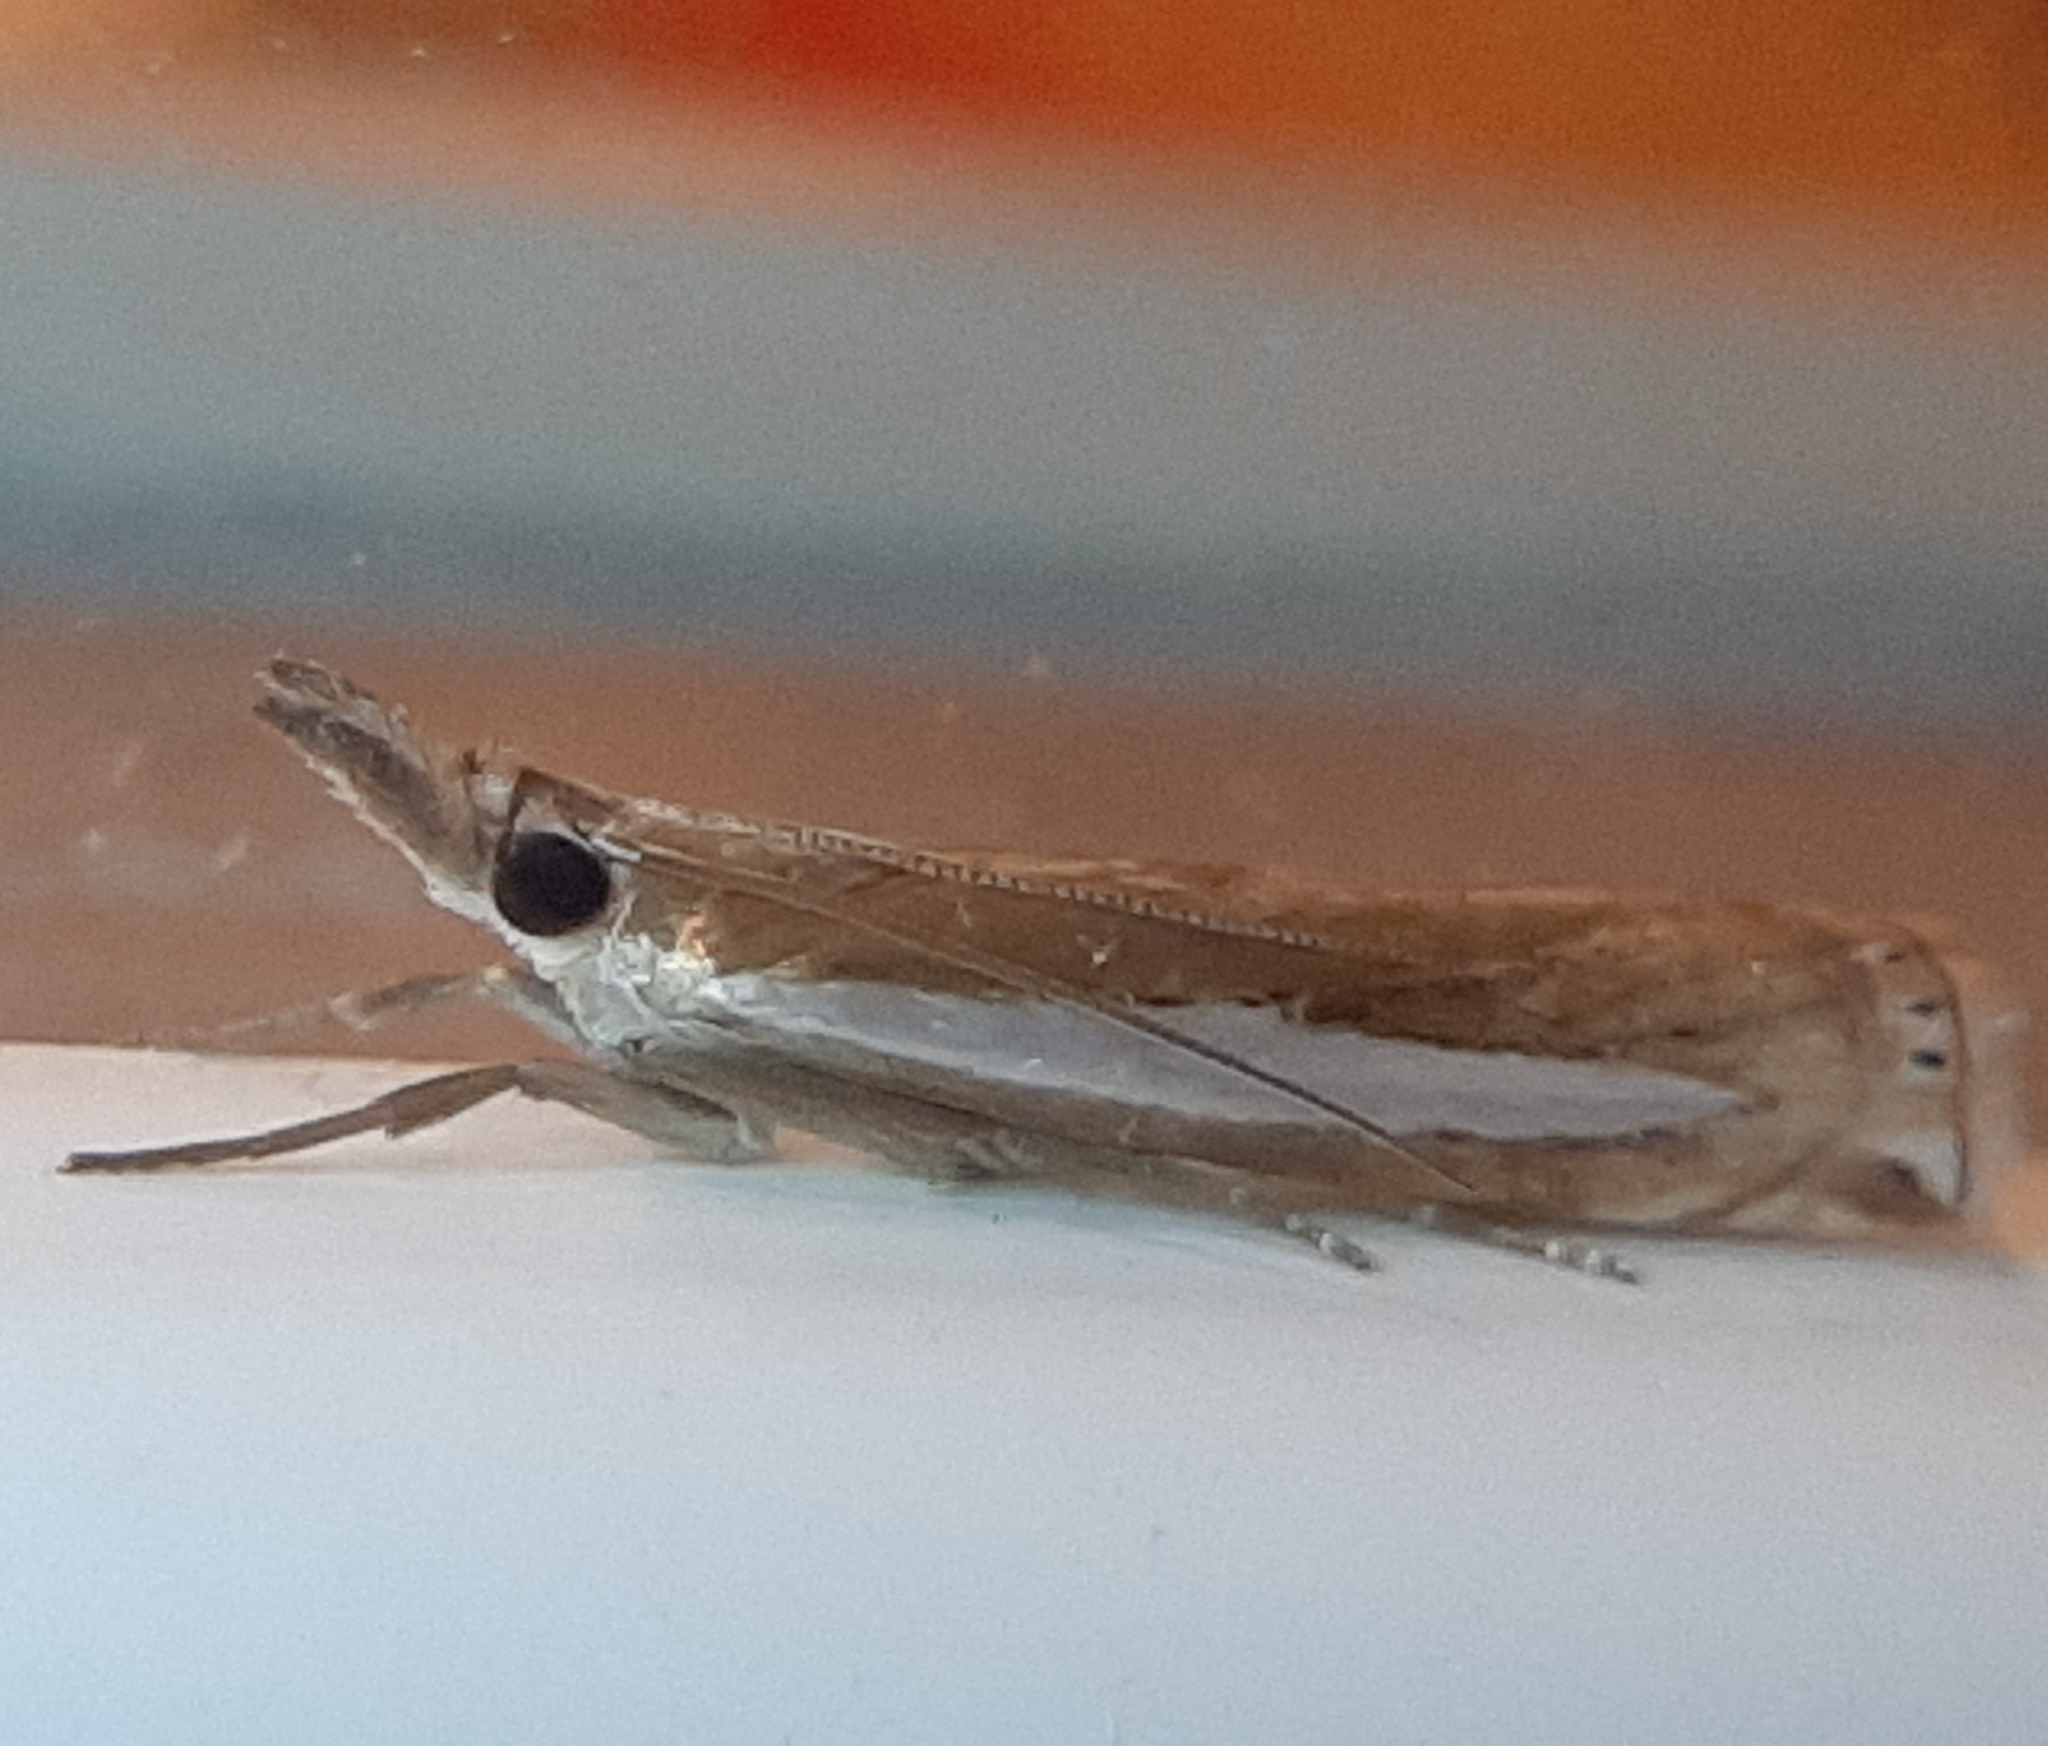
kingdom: Animalia
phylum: Arthropoda
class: Insecta
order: Lepidoptera
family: Crambidae
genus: Crambus
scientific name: Crambus praefectellus
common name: Common grass-veneer
